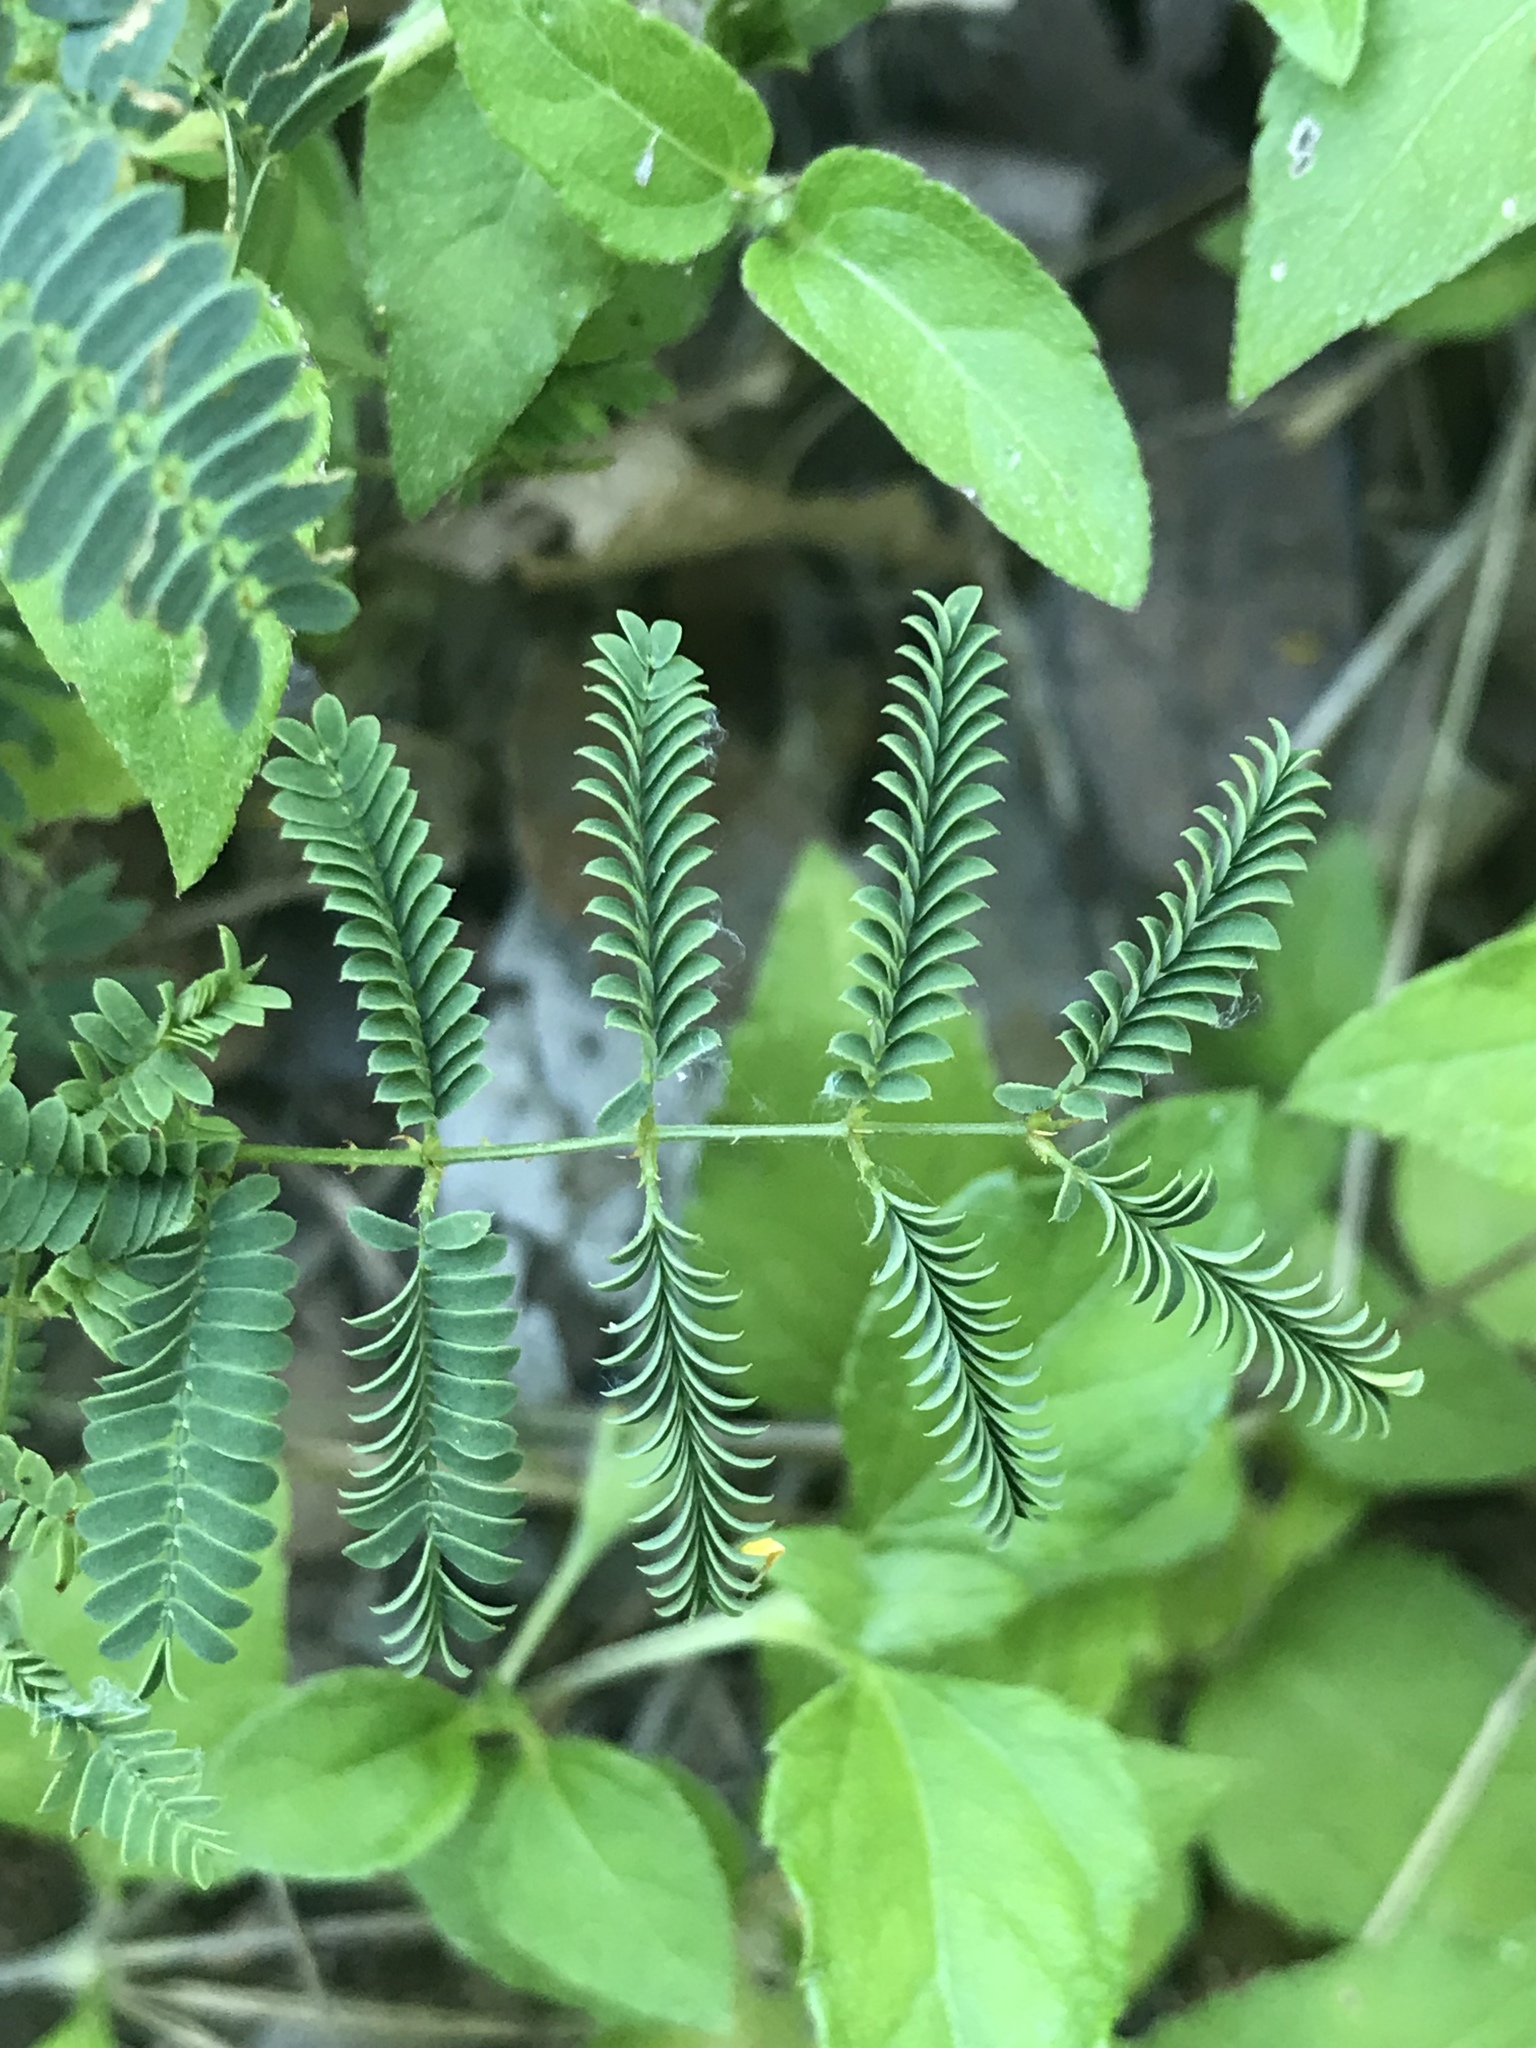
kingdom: Plantae
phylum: Tracheophyta
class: Magnoliopsida
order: Fabales
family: Fabaceae
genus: Mimosa
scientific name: Mimosa quadrivalvis
